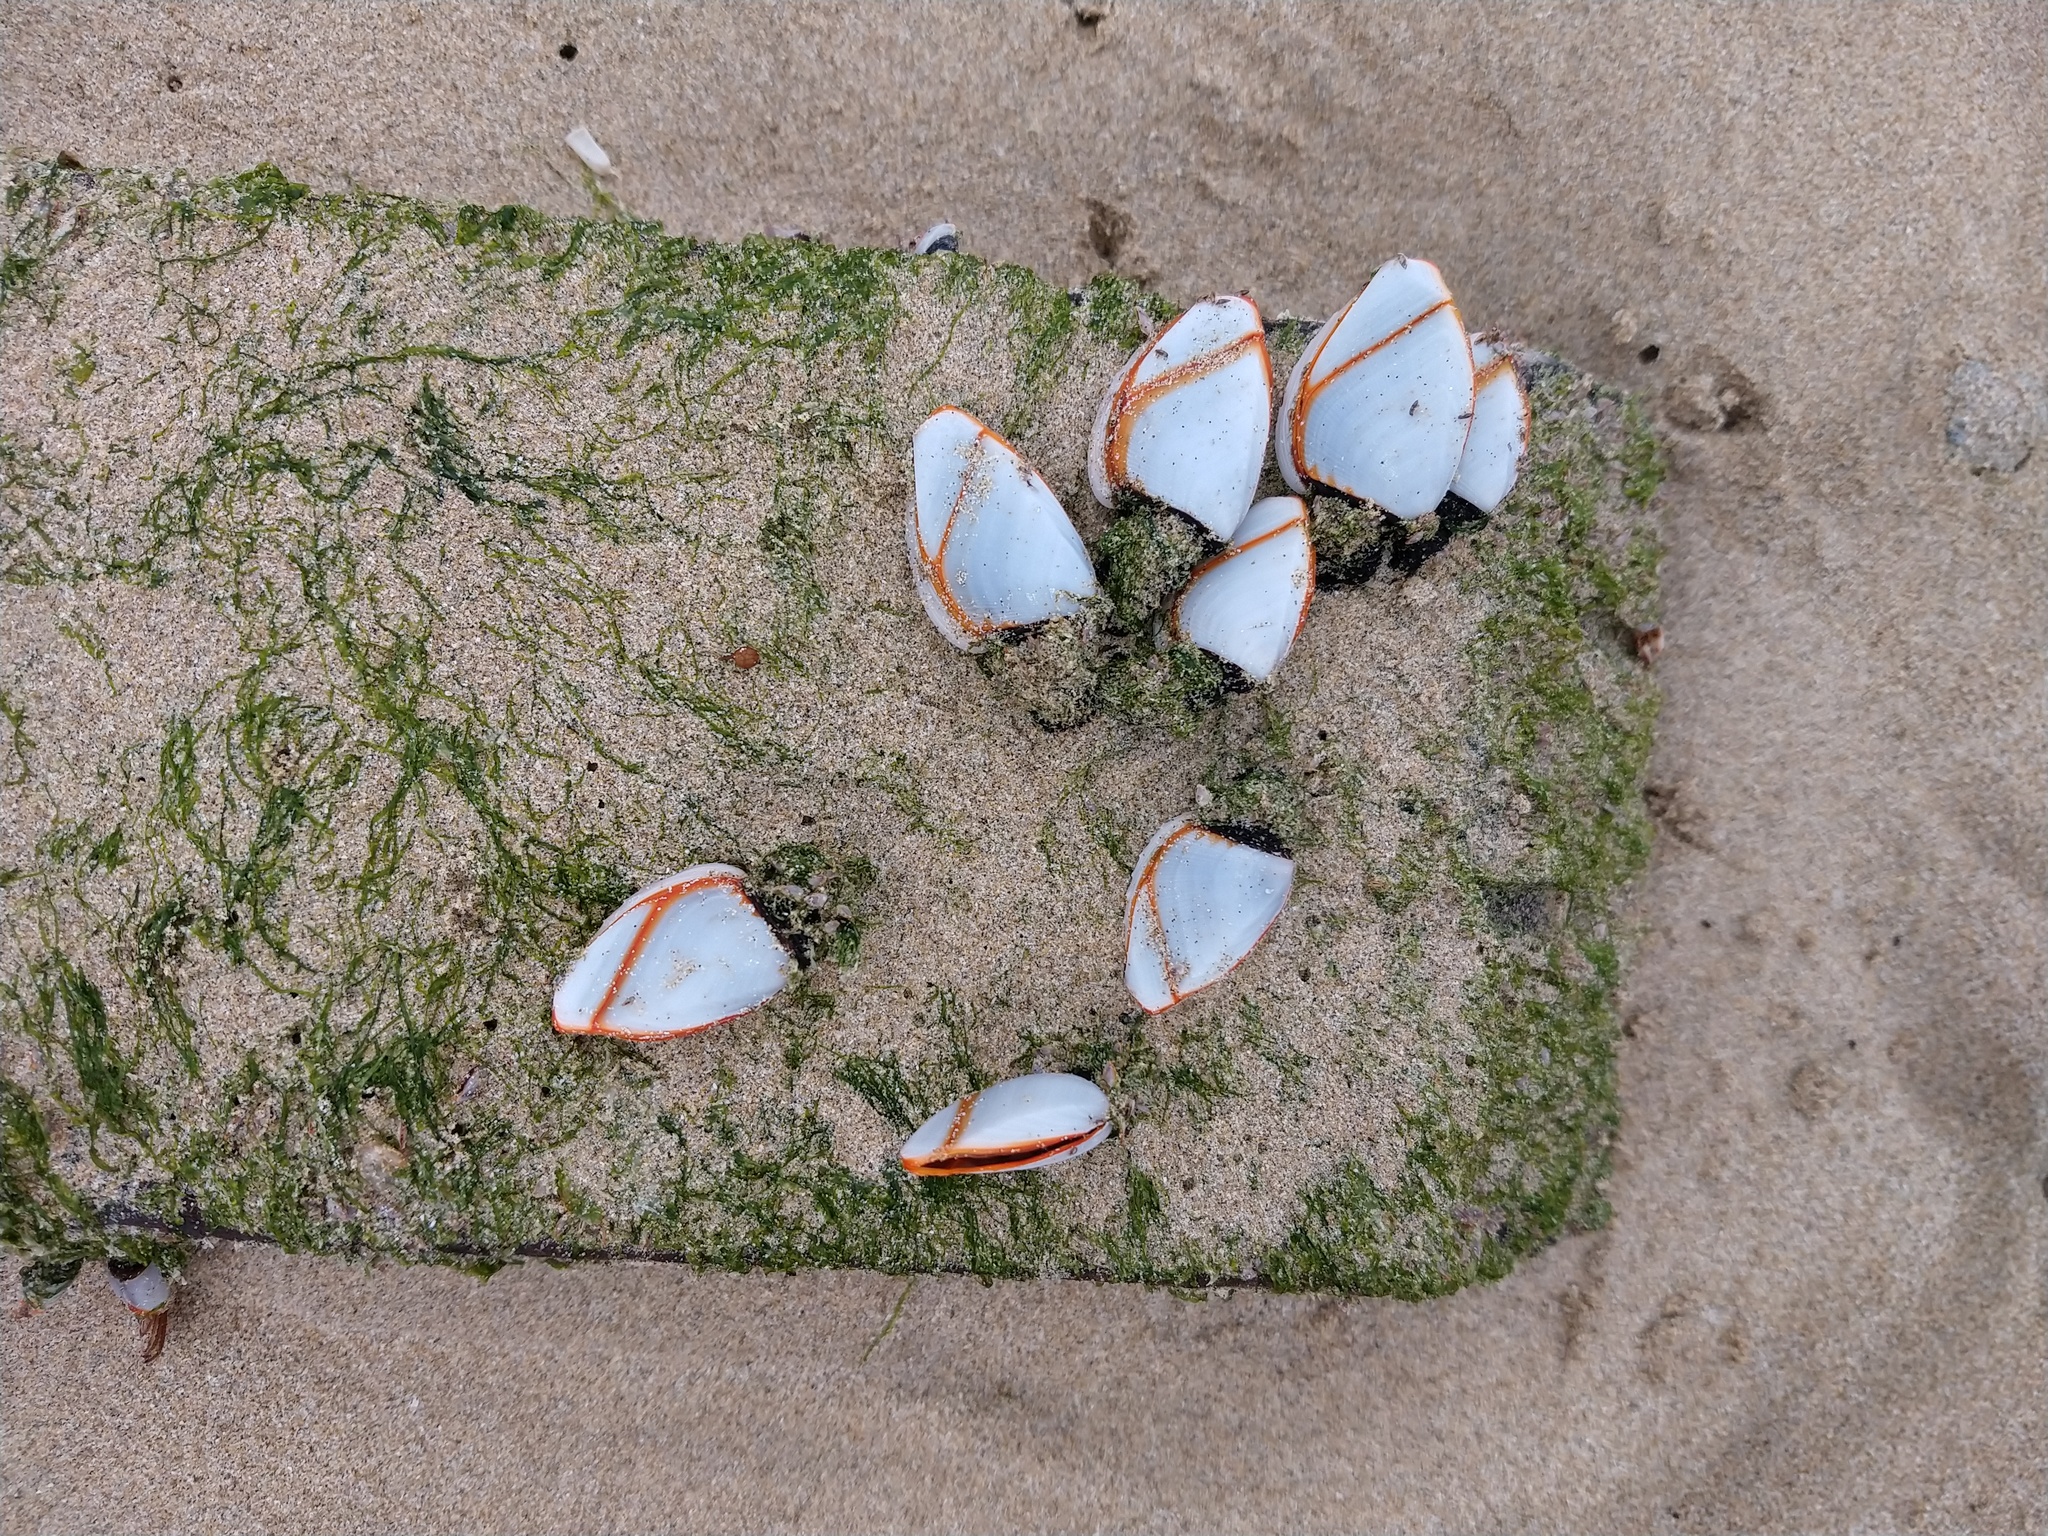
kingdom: Animalia
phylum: Arthropoda
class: Maxillopoda
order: Pedunculata
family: Lepadidae
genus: Lepas
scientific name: Lepas anatifera
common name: Common goose barnacle
